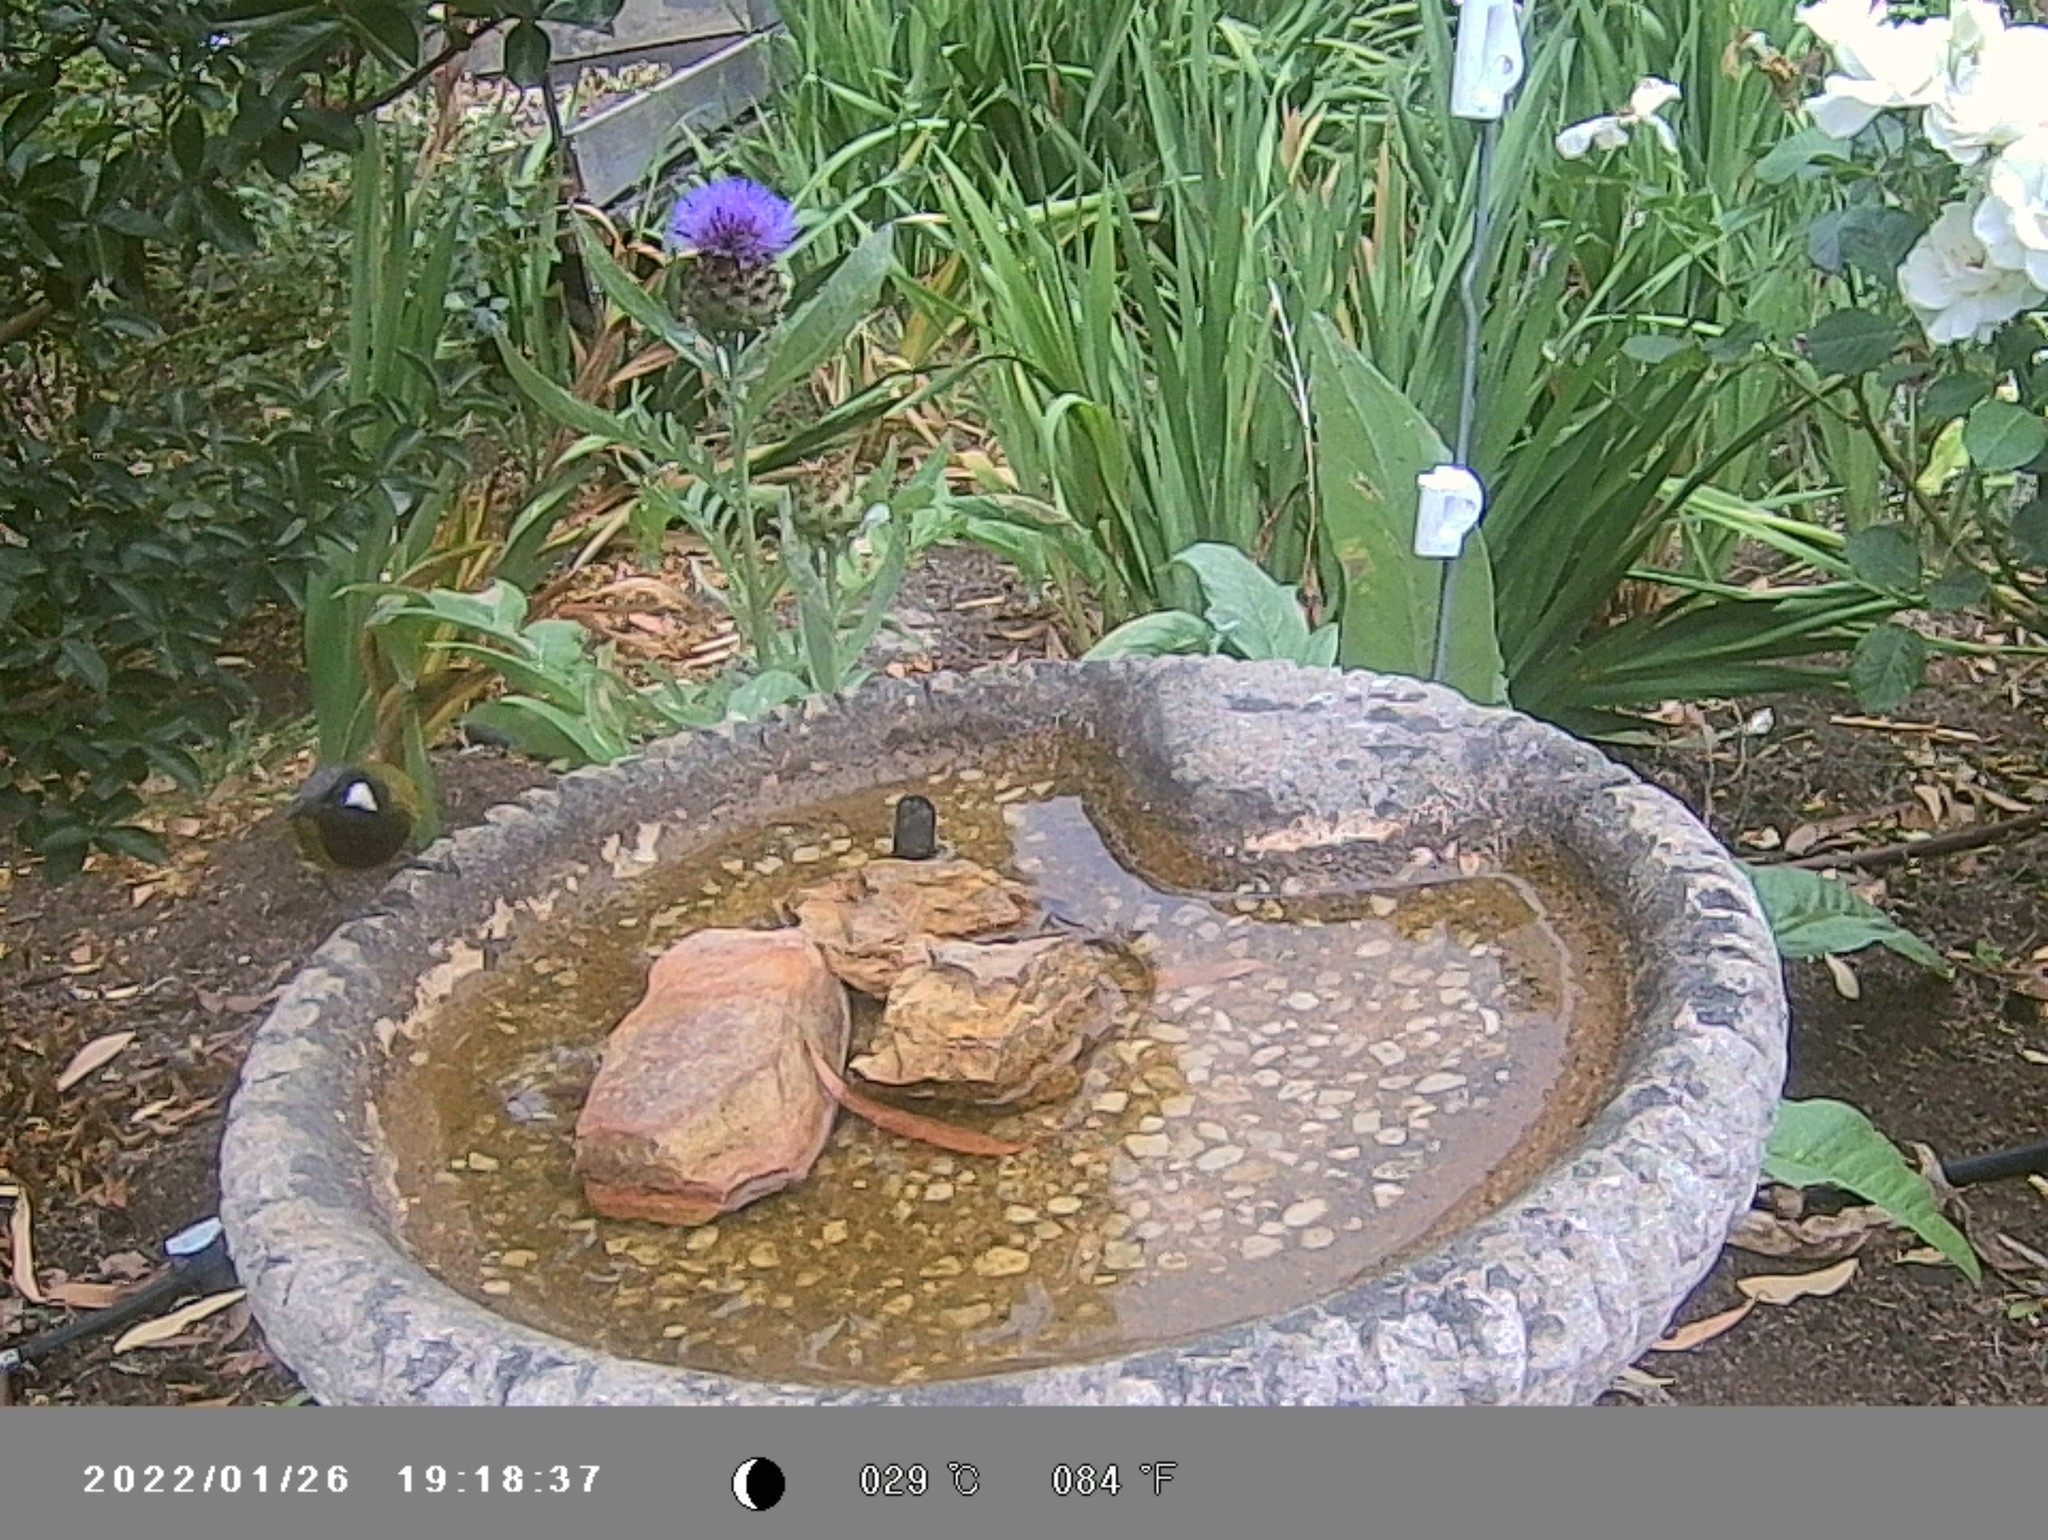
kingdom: Animalia
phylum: Chordata
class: Aves
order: Passeriformes
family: Meliphagidae
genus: Nesoptilotis
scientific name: Nesoptilotis leucotis
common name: White-eared honeyeater
